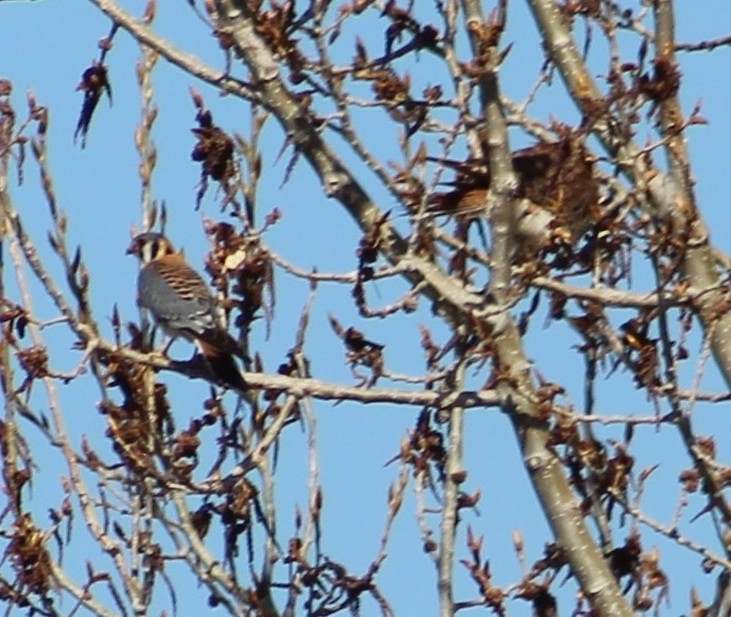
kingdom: Animalia
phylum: Chordata
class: Aves
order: Falconiformes
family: Falconidae
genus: Falco
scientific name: Falco sparverius
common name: American kestrel
